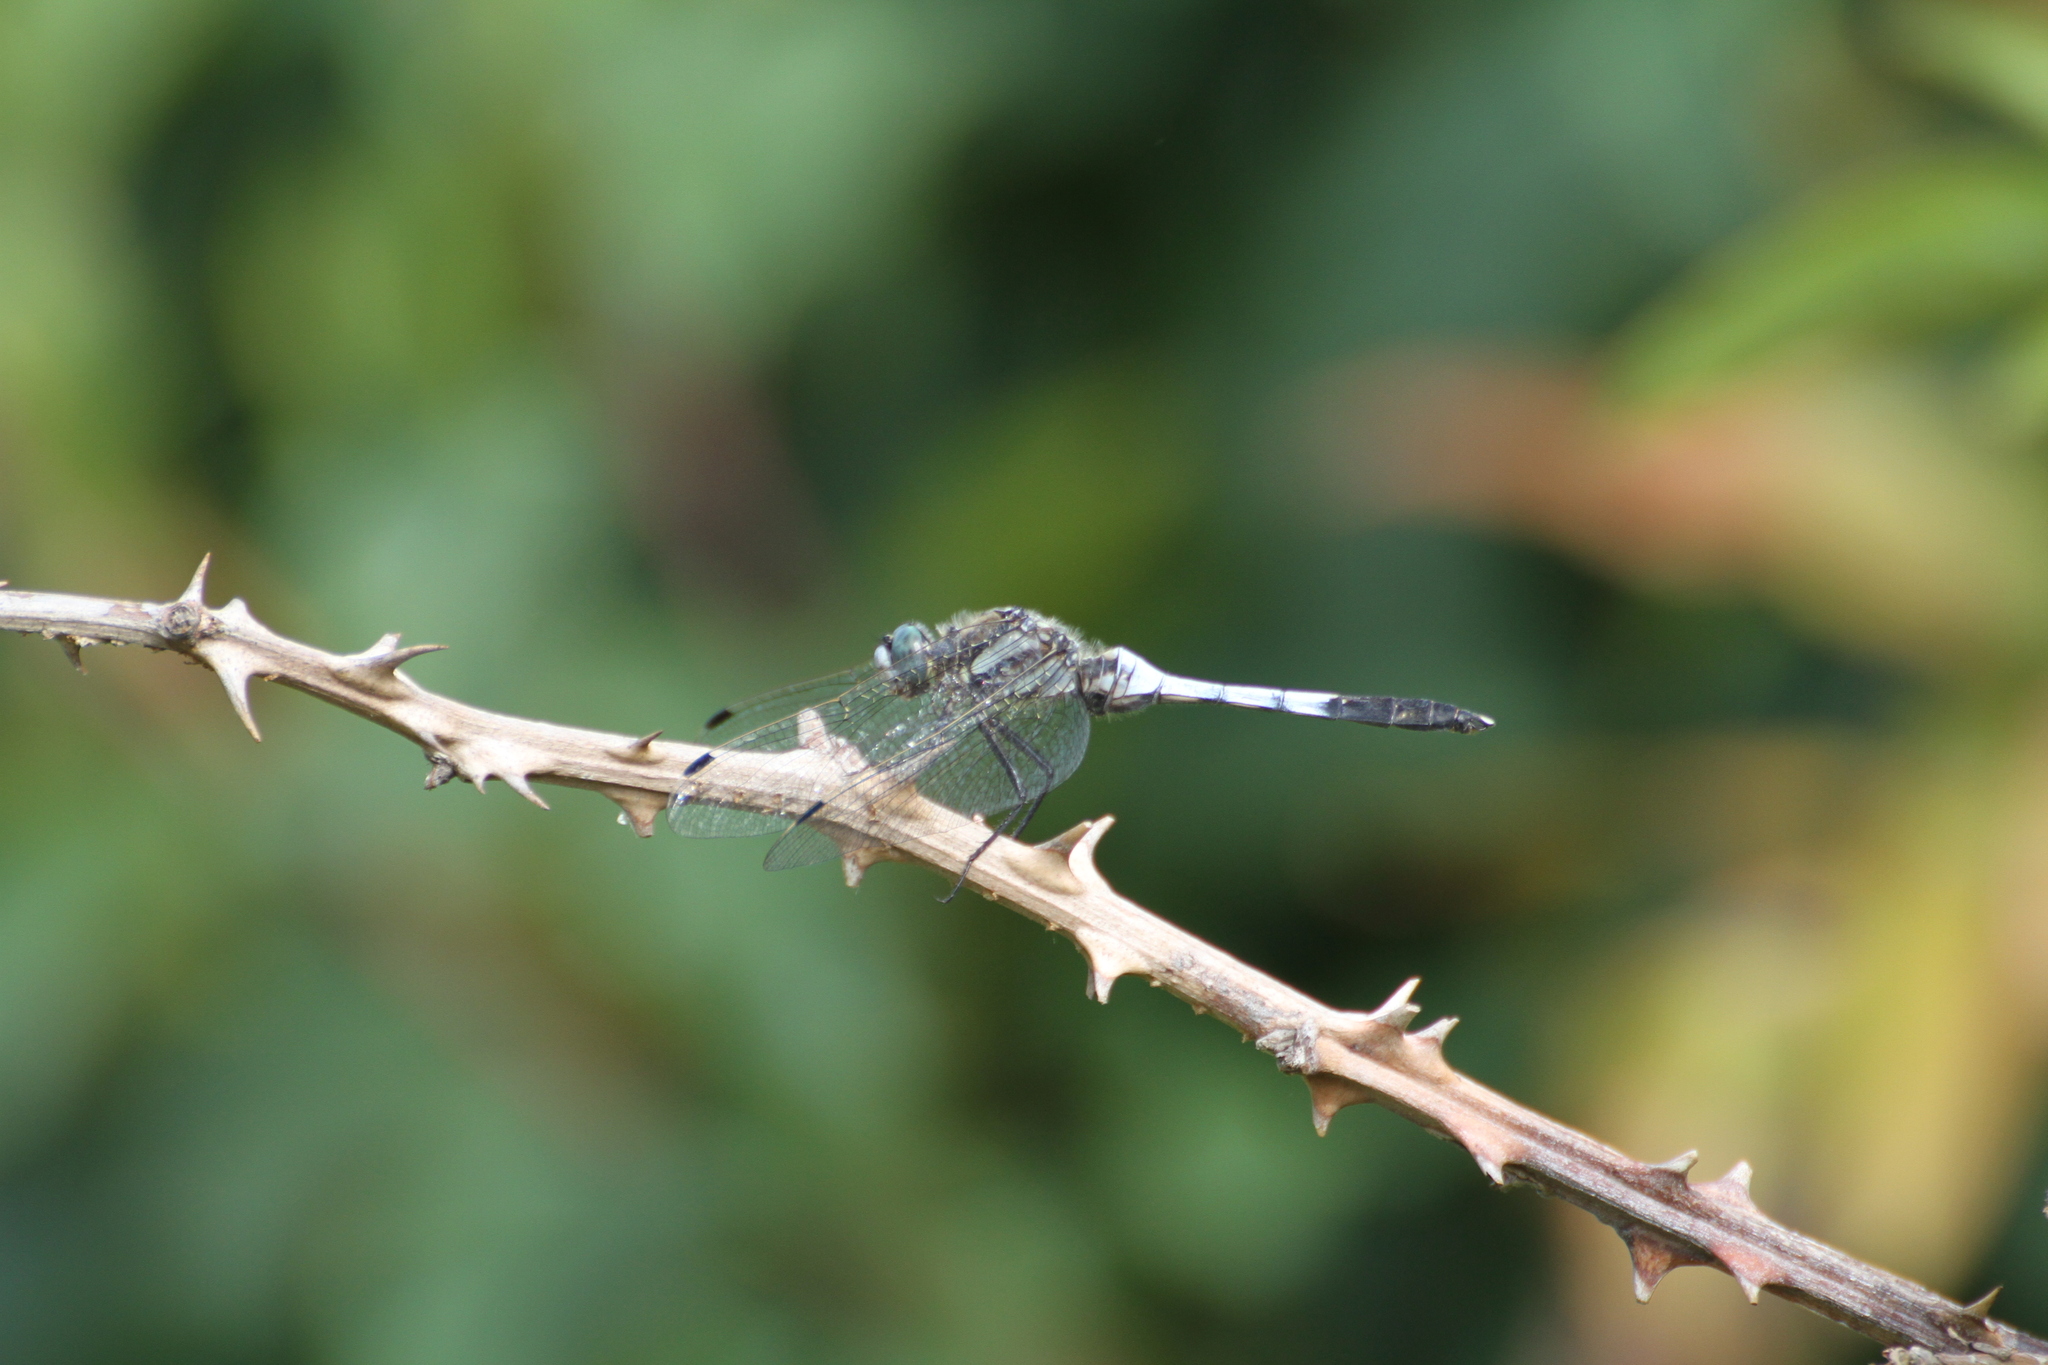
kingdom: Animalia
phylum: Arthropoda
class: Insecta
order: Odonata
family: Libellulidae
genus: Orthetrum
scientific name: Orthetrum albistylum
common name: White-tailed skimmer
